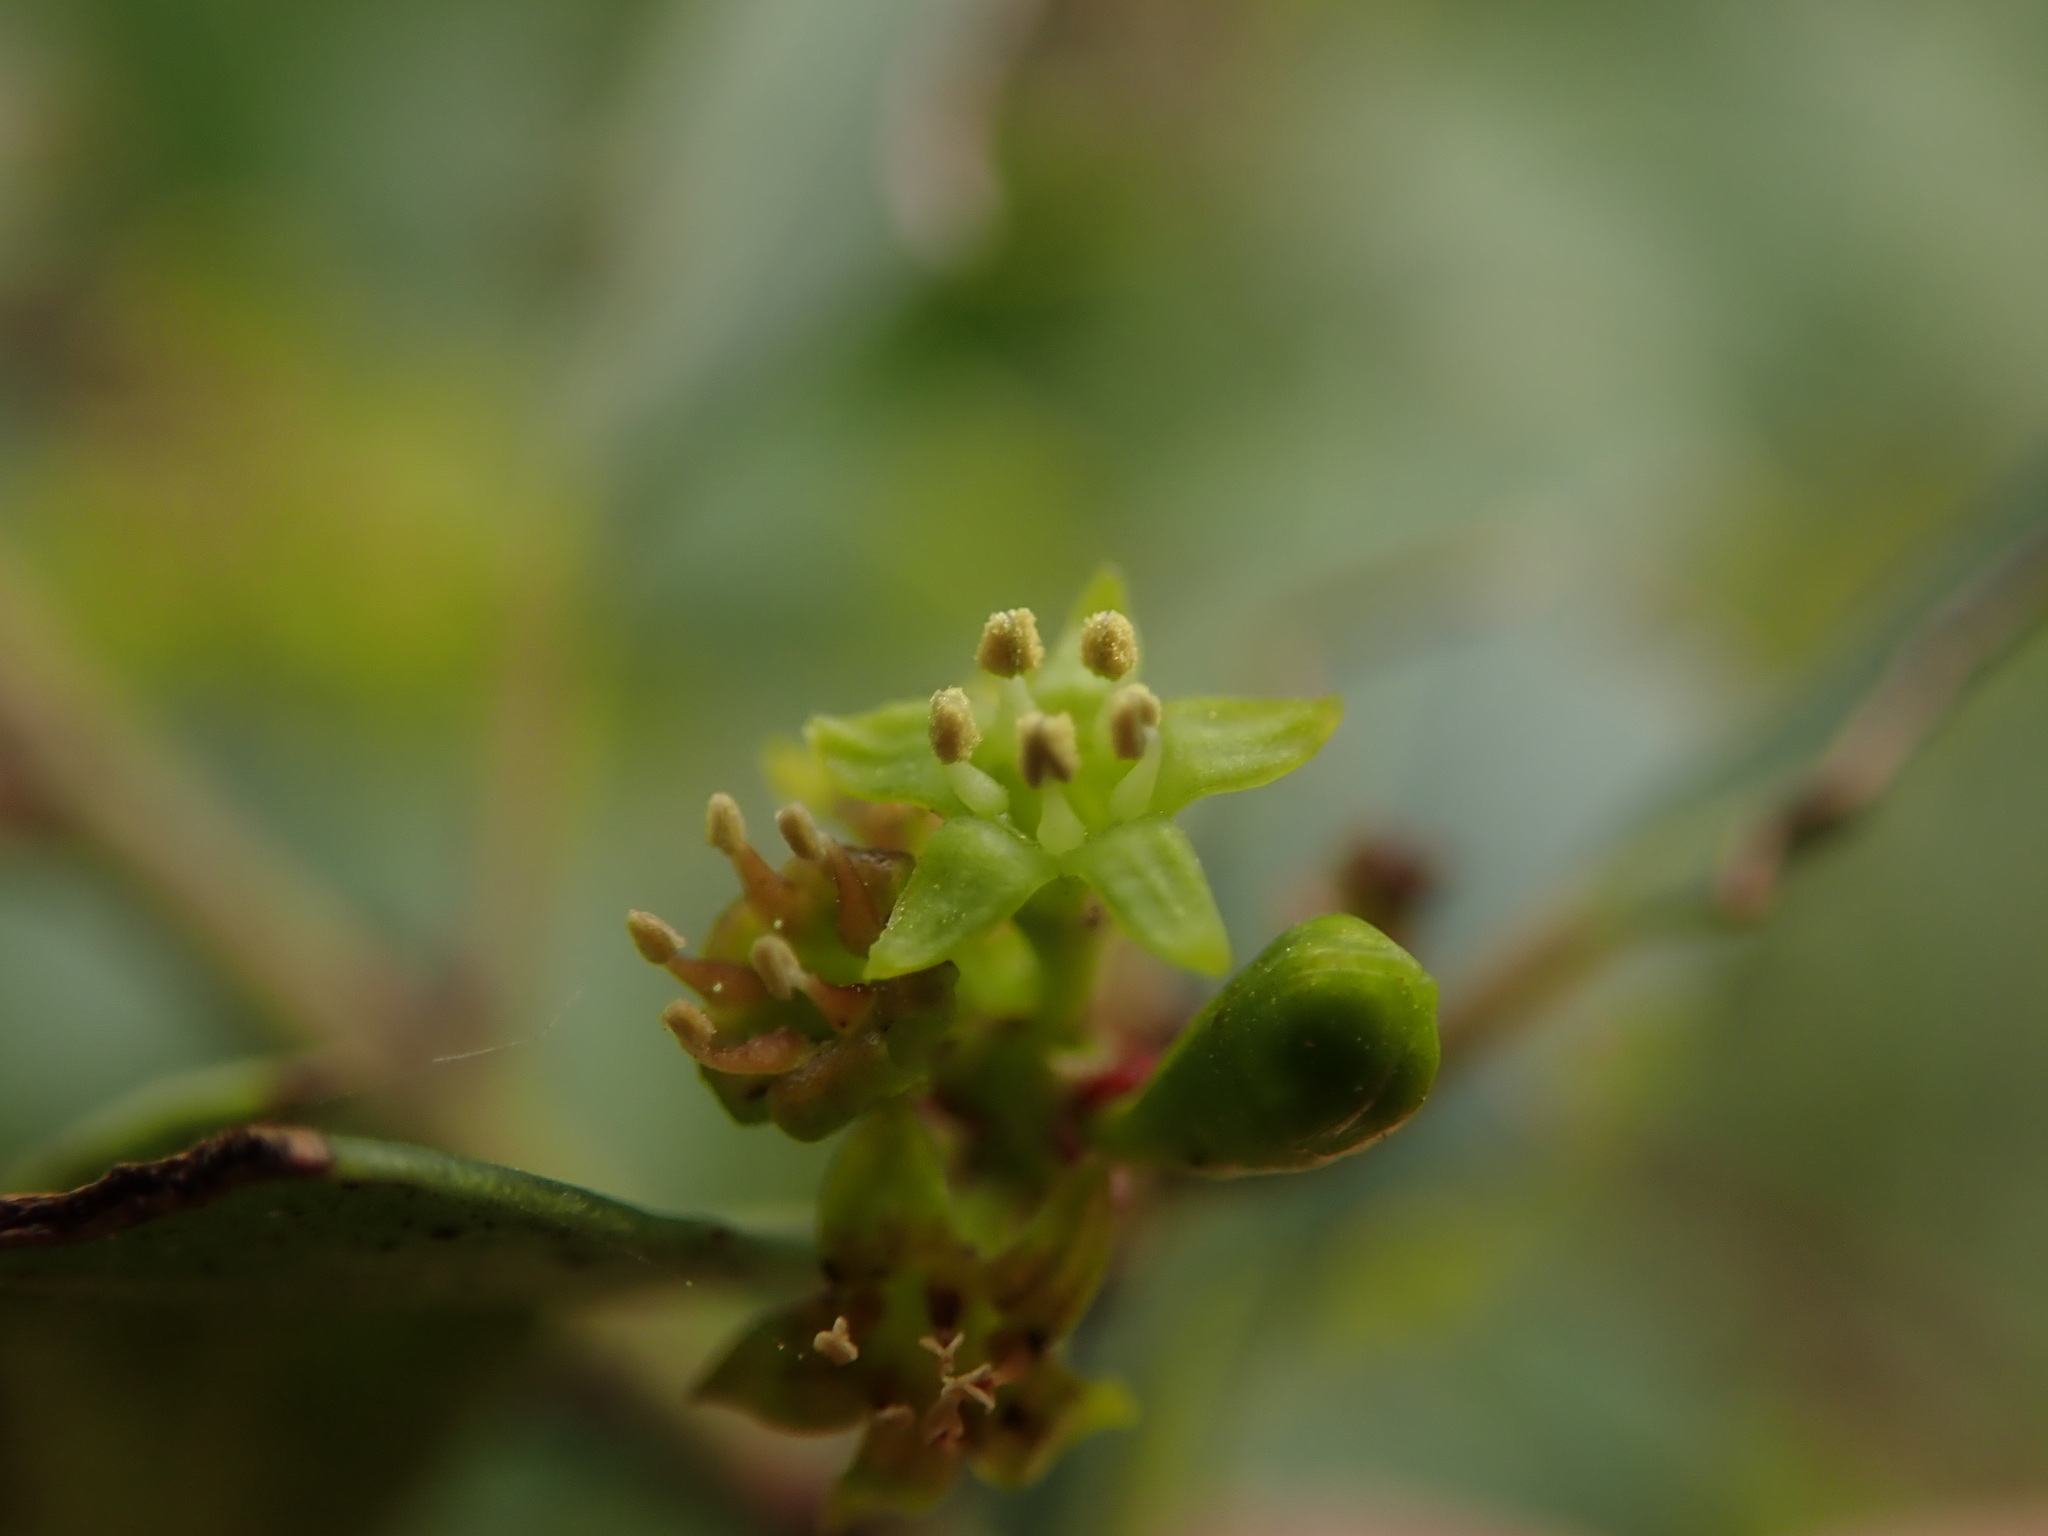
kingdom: Plantae
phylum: Tracheophyta
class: Magnoliopsida
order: Rosales
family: Rhamnaceae
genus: Rhamnus
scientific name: Rhamnus alaternus
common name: Mediterranean buckthorn
